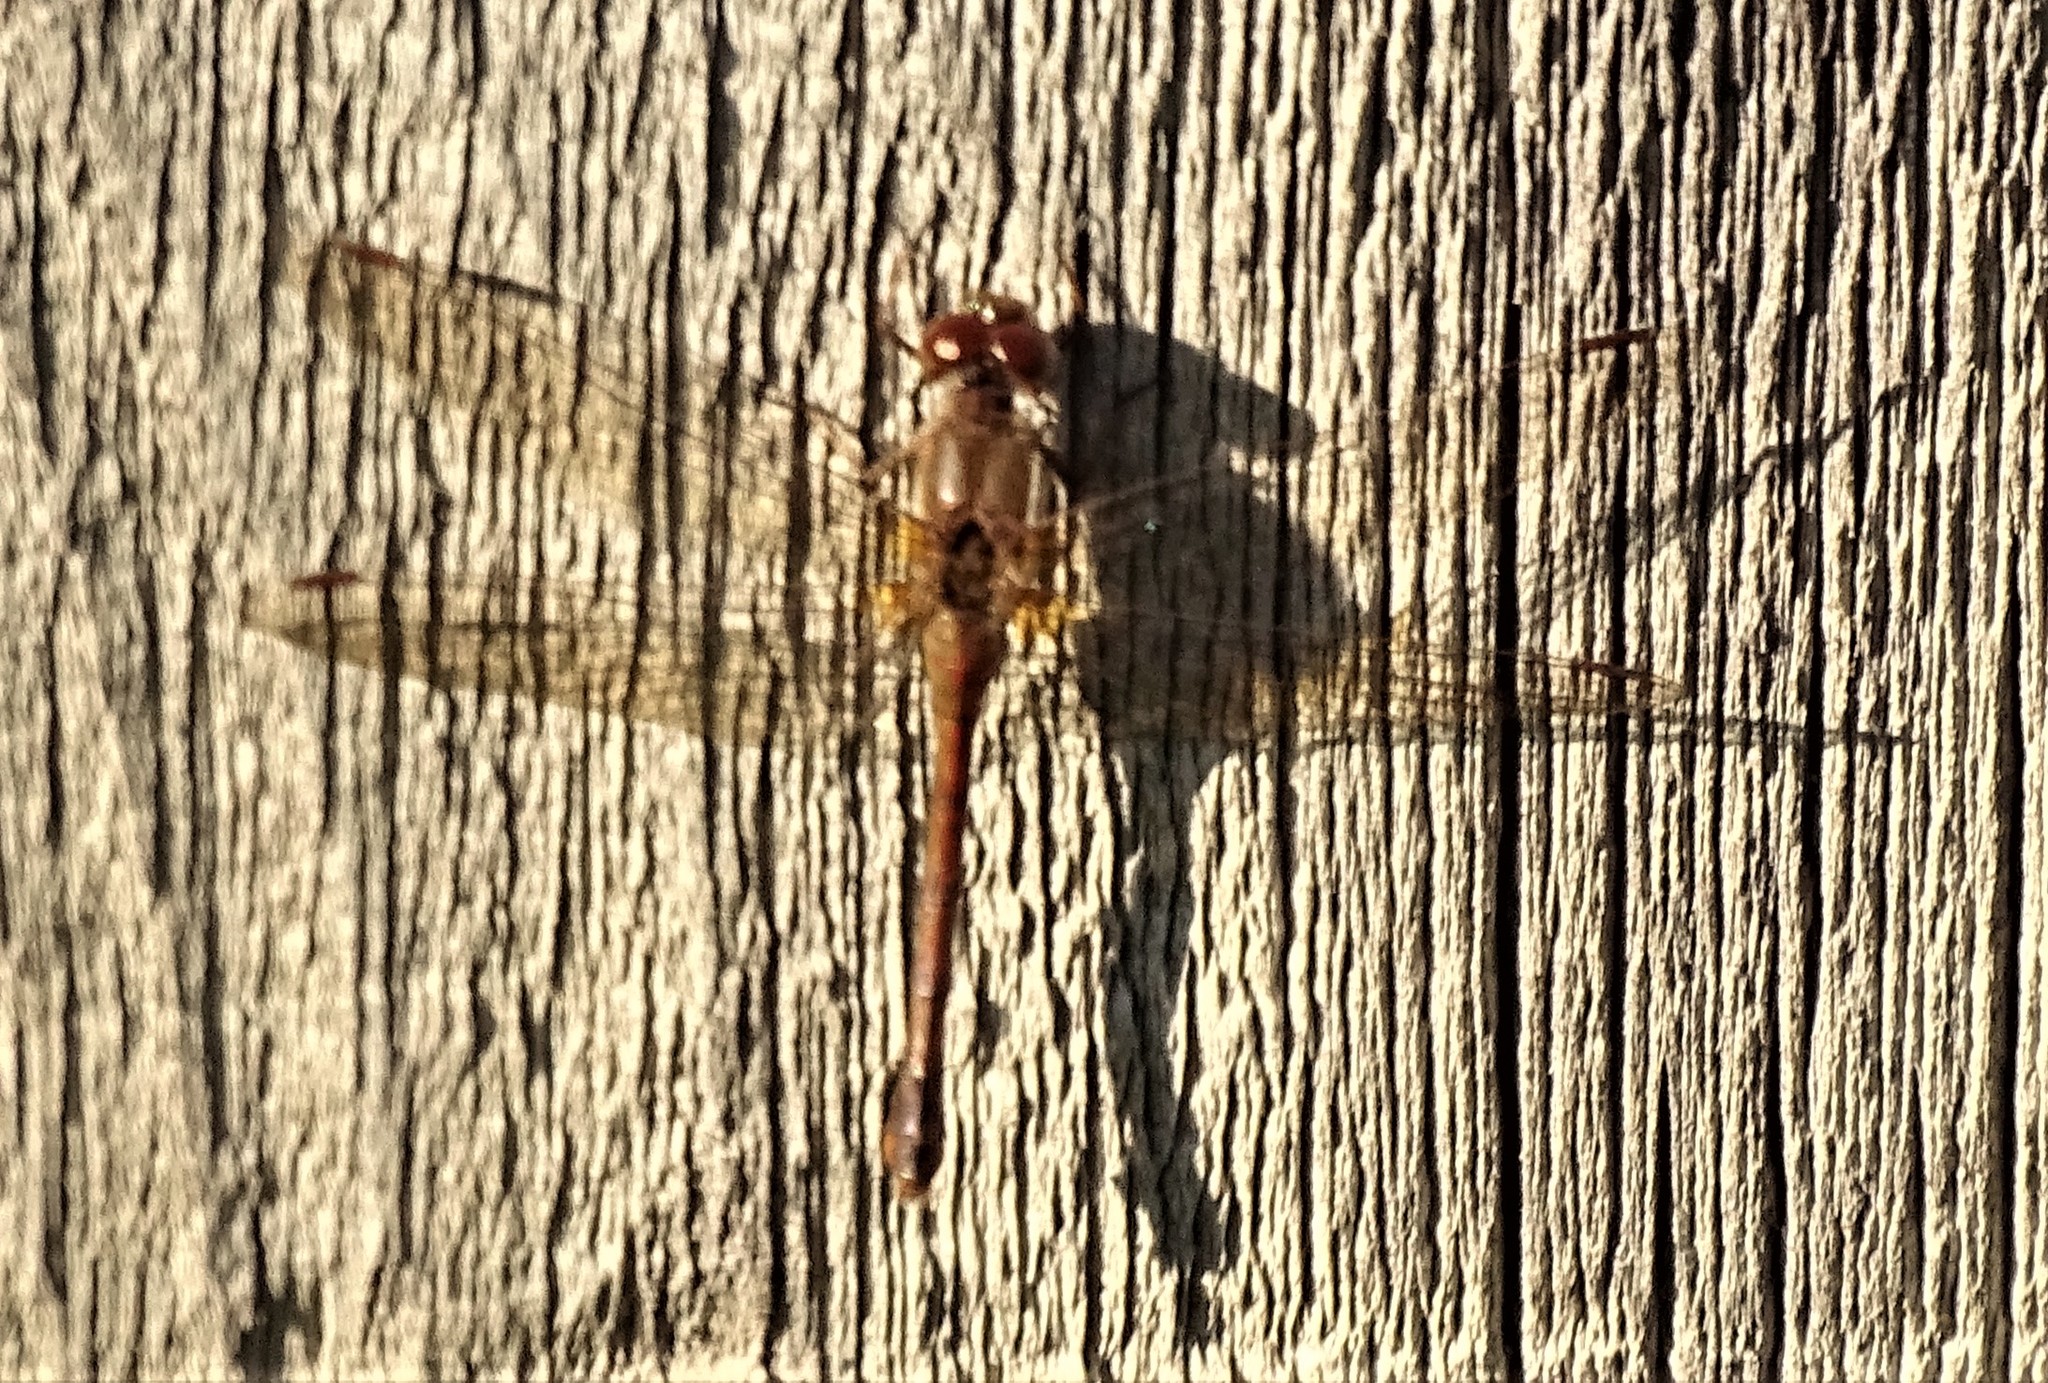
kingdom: Animalia
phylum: Arthropoda
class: Insecta
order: Odonata
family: Libellulidae
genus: Sympetrum
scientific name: Sympetrum vicinum
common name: Autumn meadowhawk
